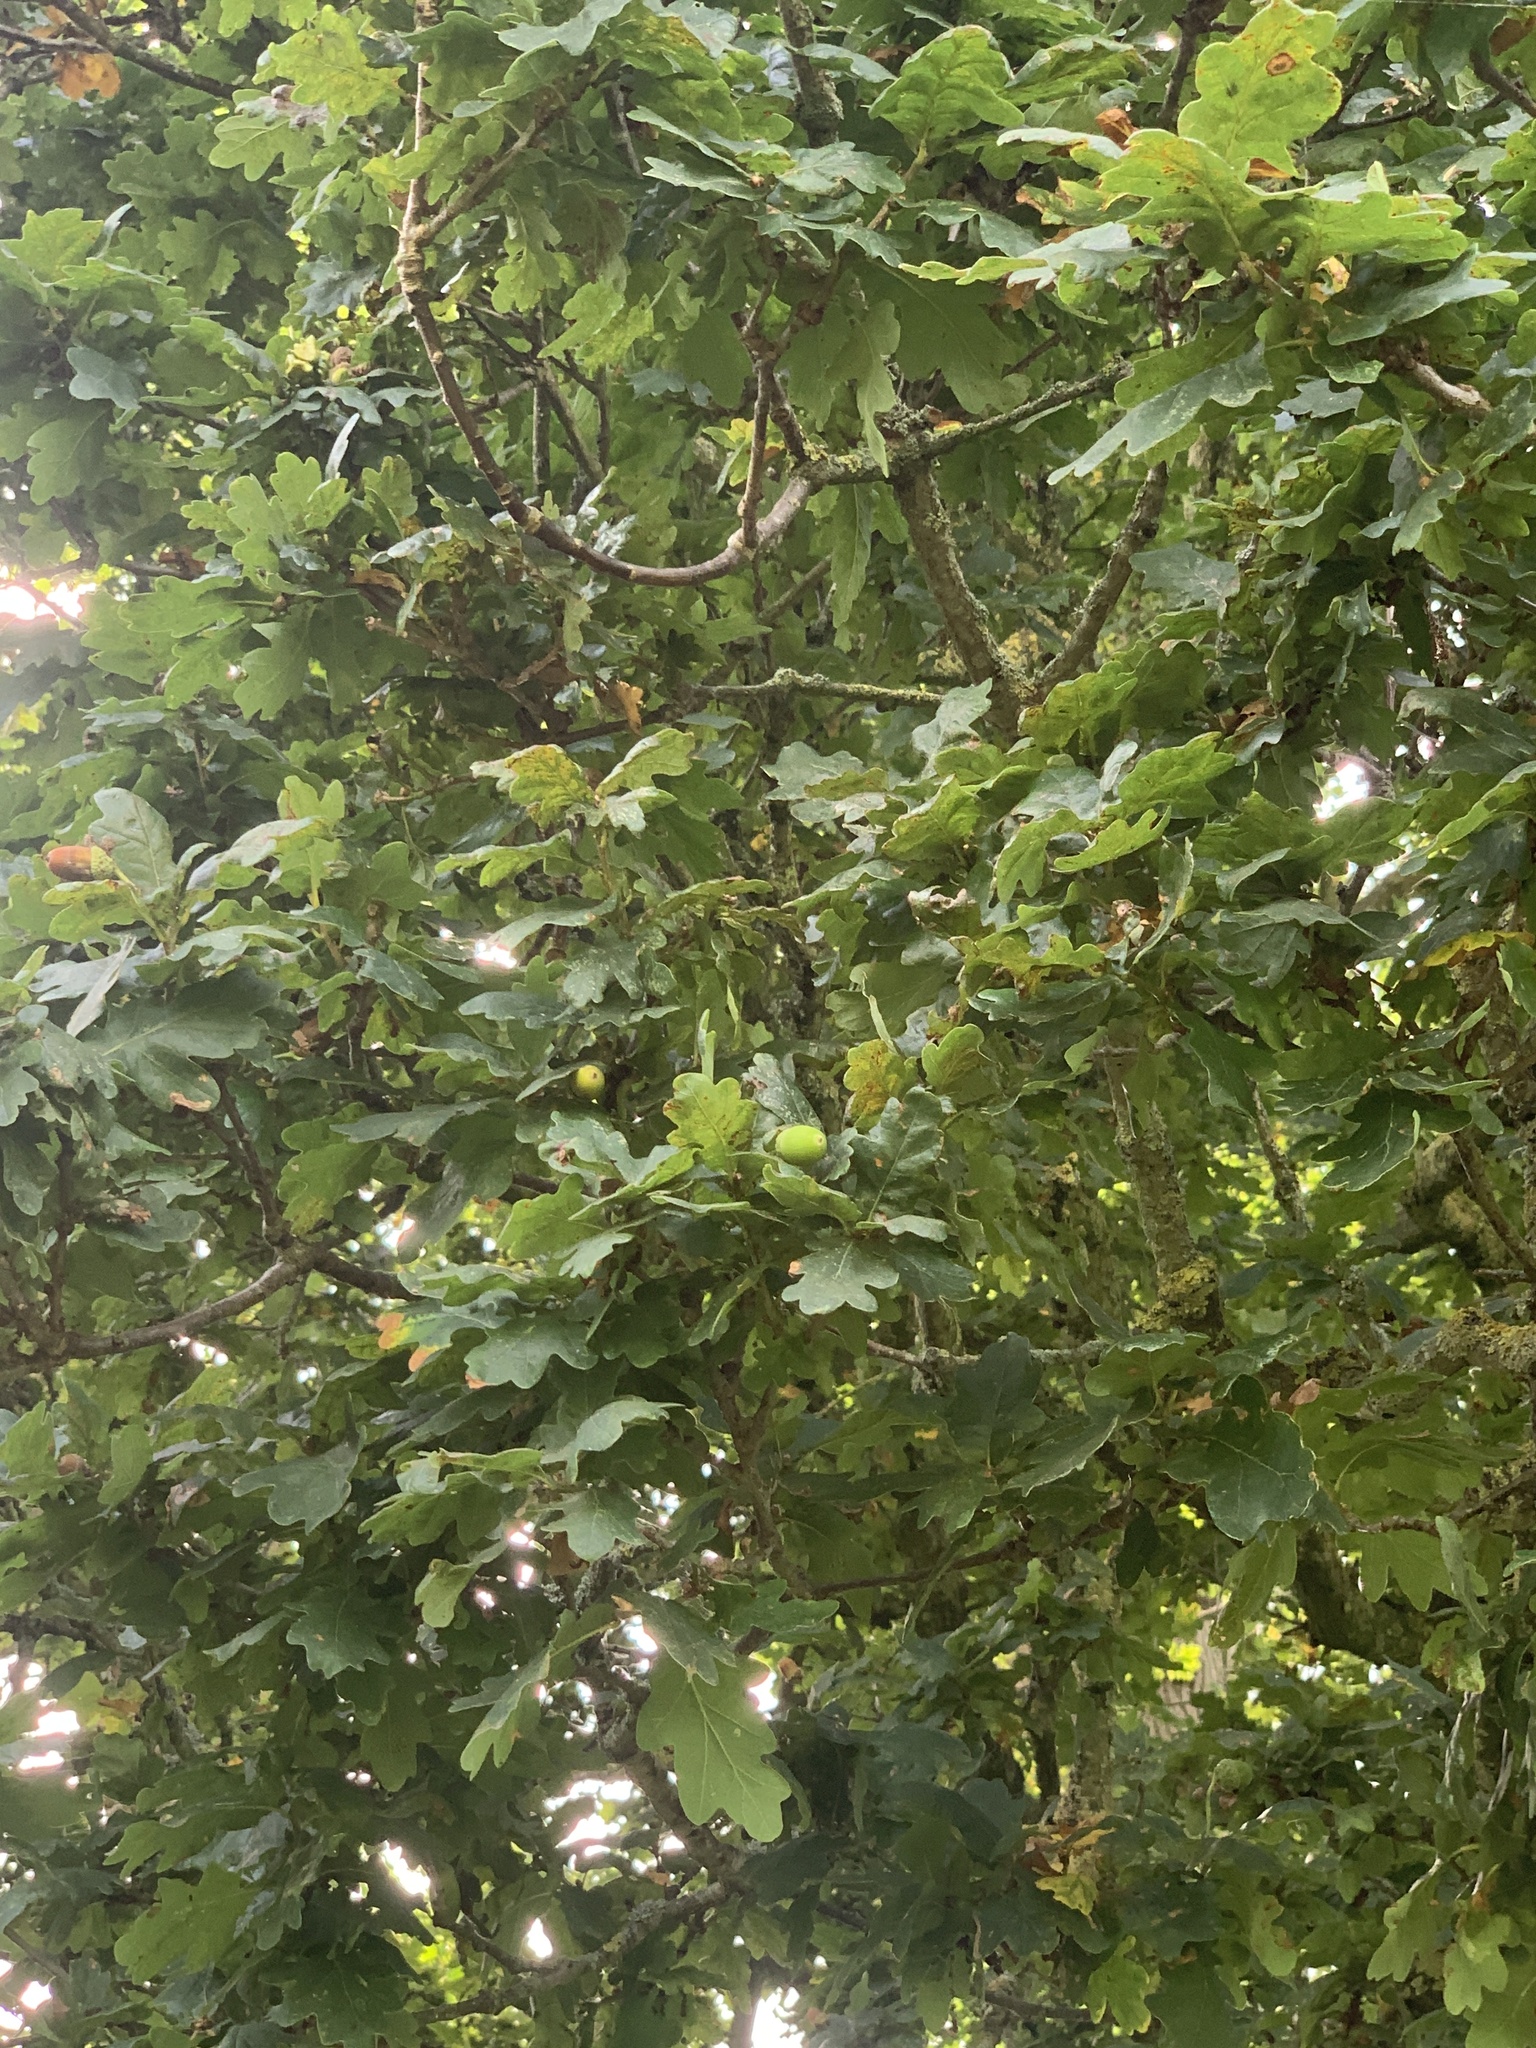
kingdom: Plantae
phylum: Tracheophyta
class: Magnoliopsida
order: Fagales
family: Fagaceae
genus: Quercus
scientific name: Quercus robur
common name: Pedunculate oak
